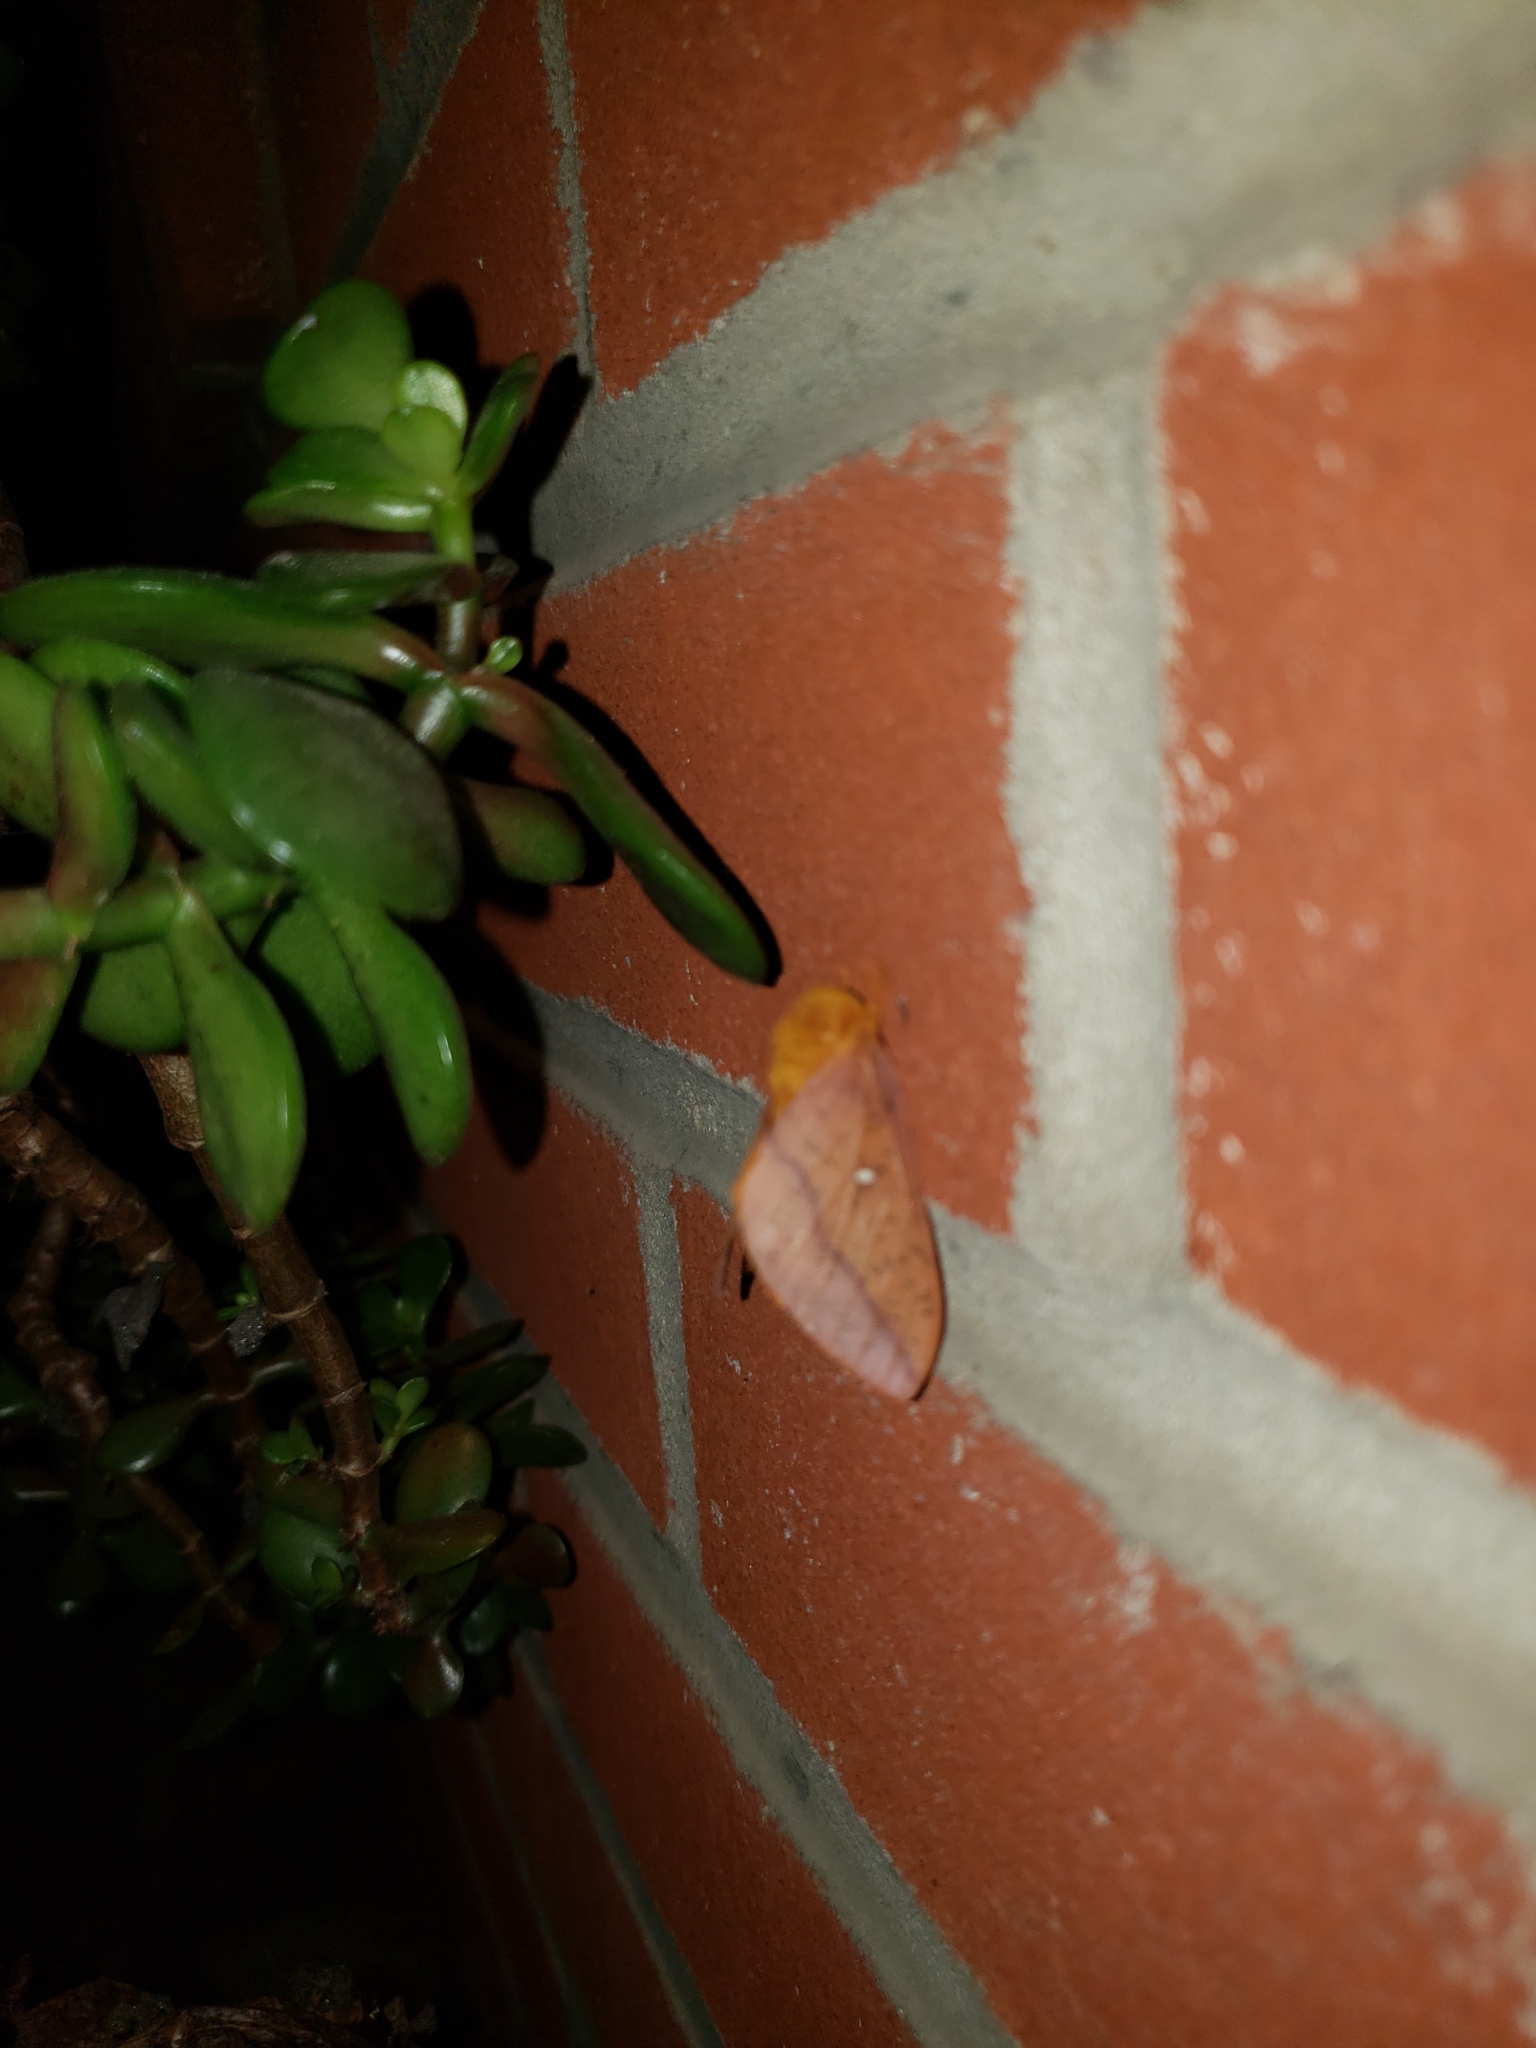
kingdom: Animalia
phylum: Arthropoda
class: Insecta
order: Lepidoptera
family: Saturniidae
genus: Anisota
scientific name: Anisota senatoria
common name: Orange-striped oakworm moth
